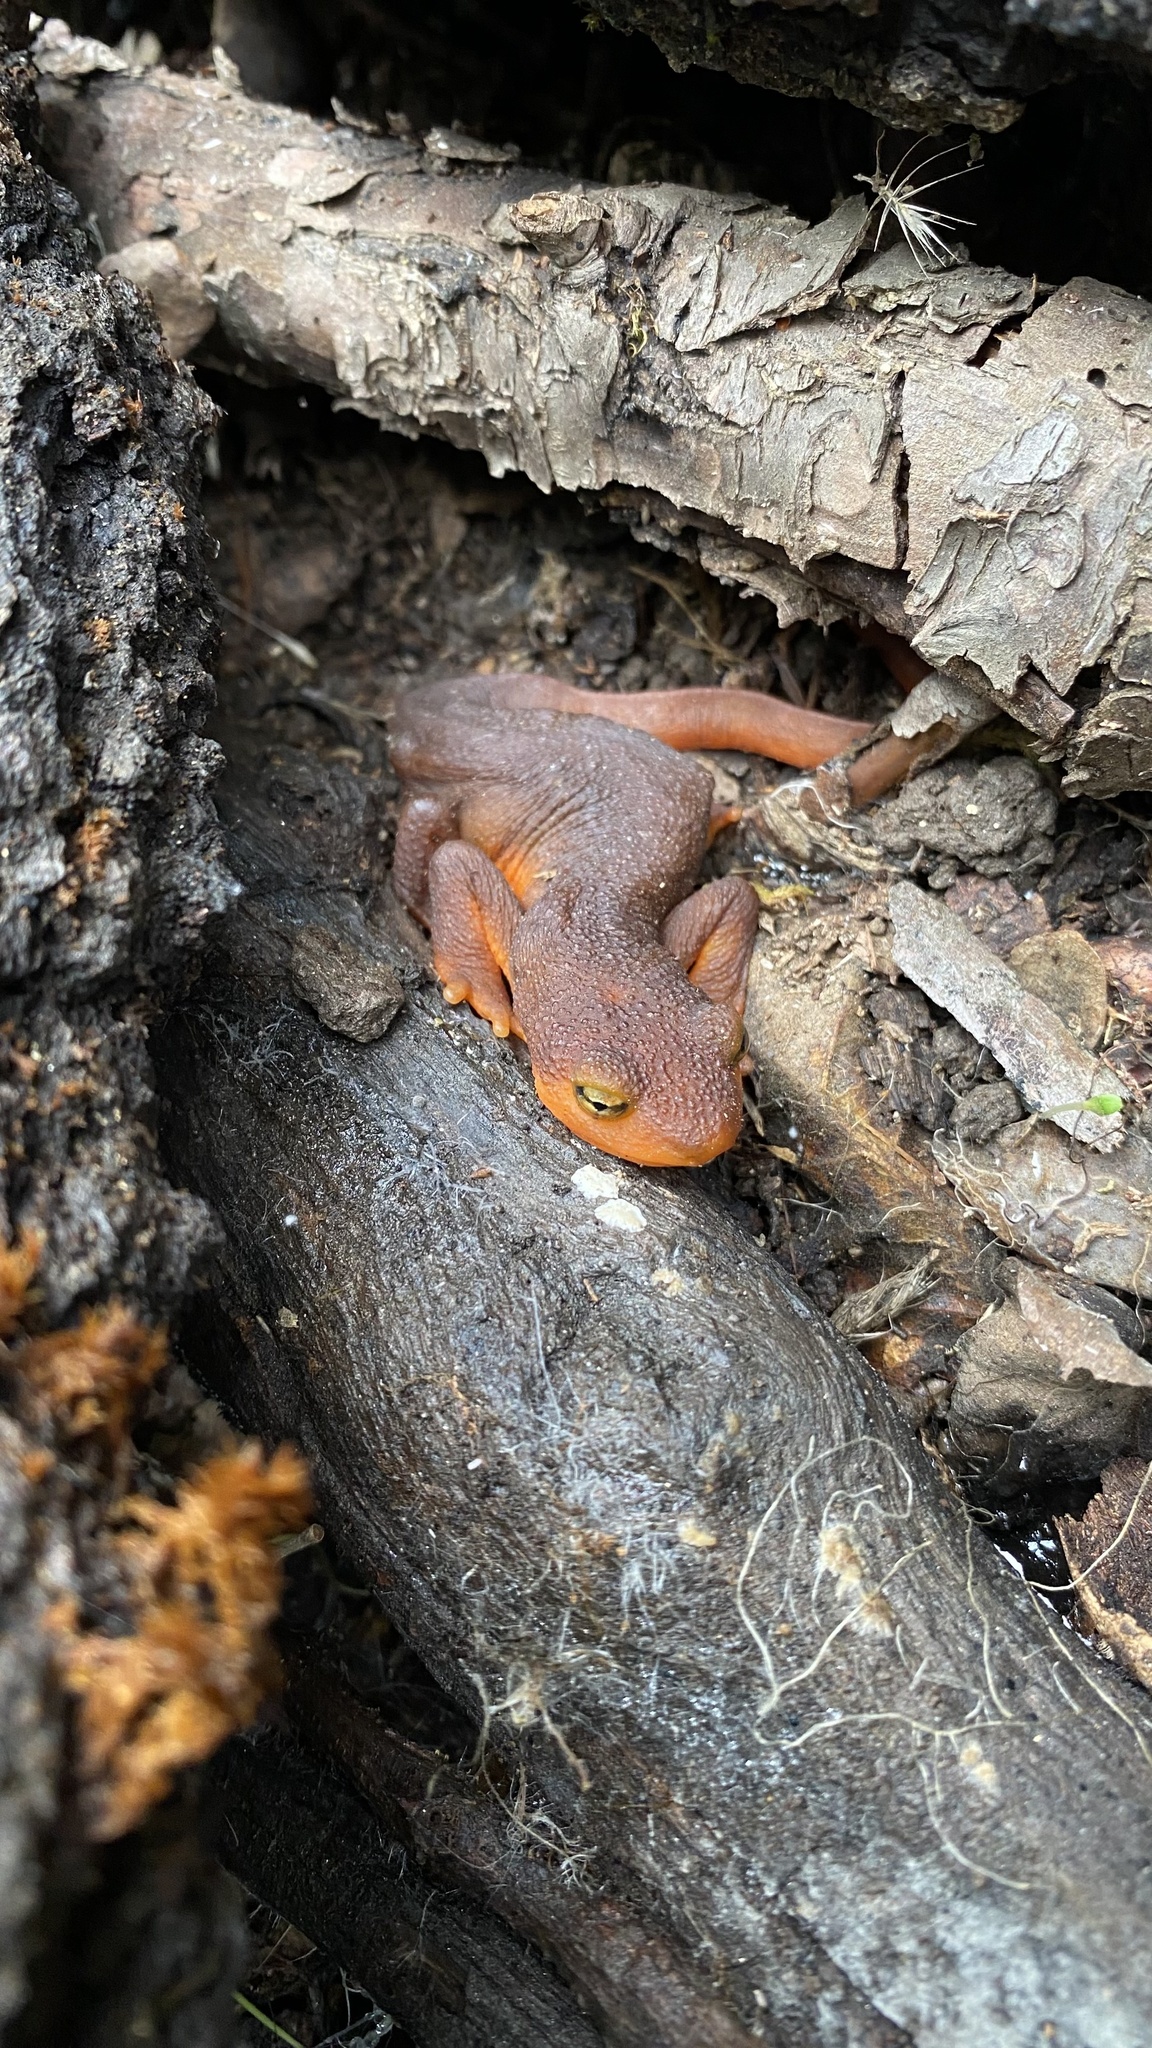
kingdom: Animalia
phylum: Chordata
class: Amphibia
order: Caudata
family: Salamandridae
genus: Taricha
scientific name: Taricha torosa
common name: California newt
